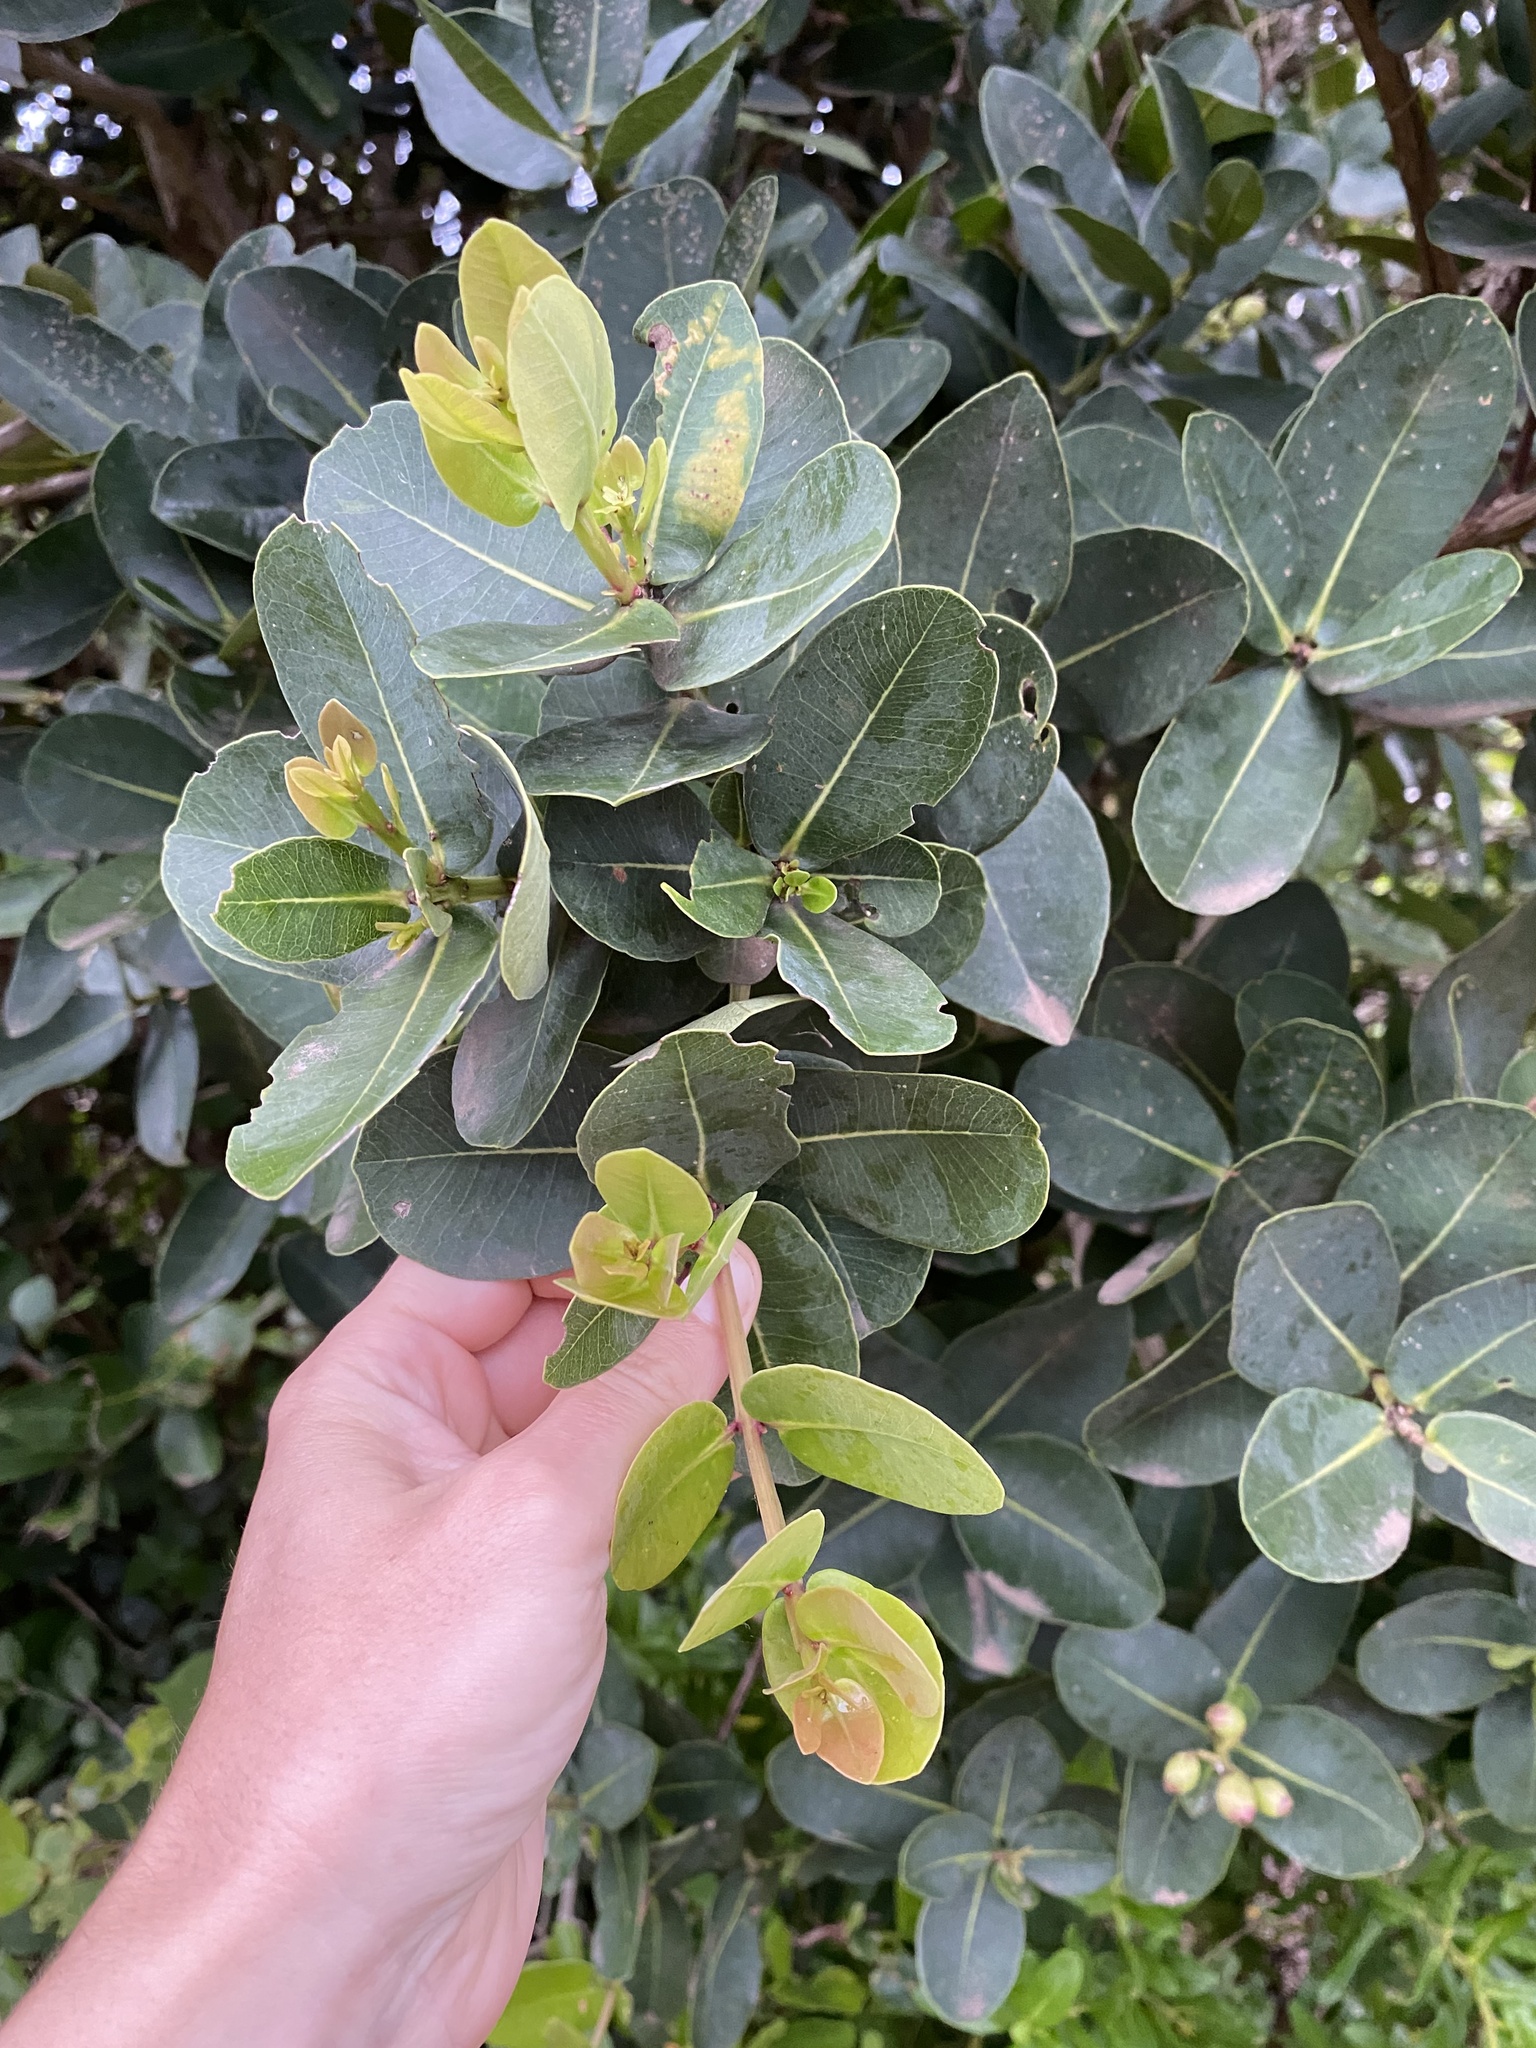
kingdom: Plantae
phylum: Tracheophyta
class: Magnoliopsida
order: Myrtales
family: Myrtaceae
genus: Syzygium
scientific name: Syzygium cordatum
